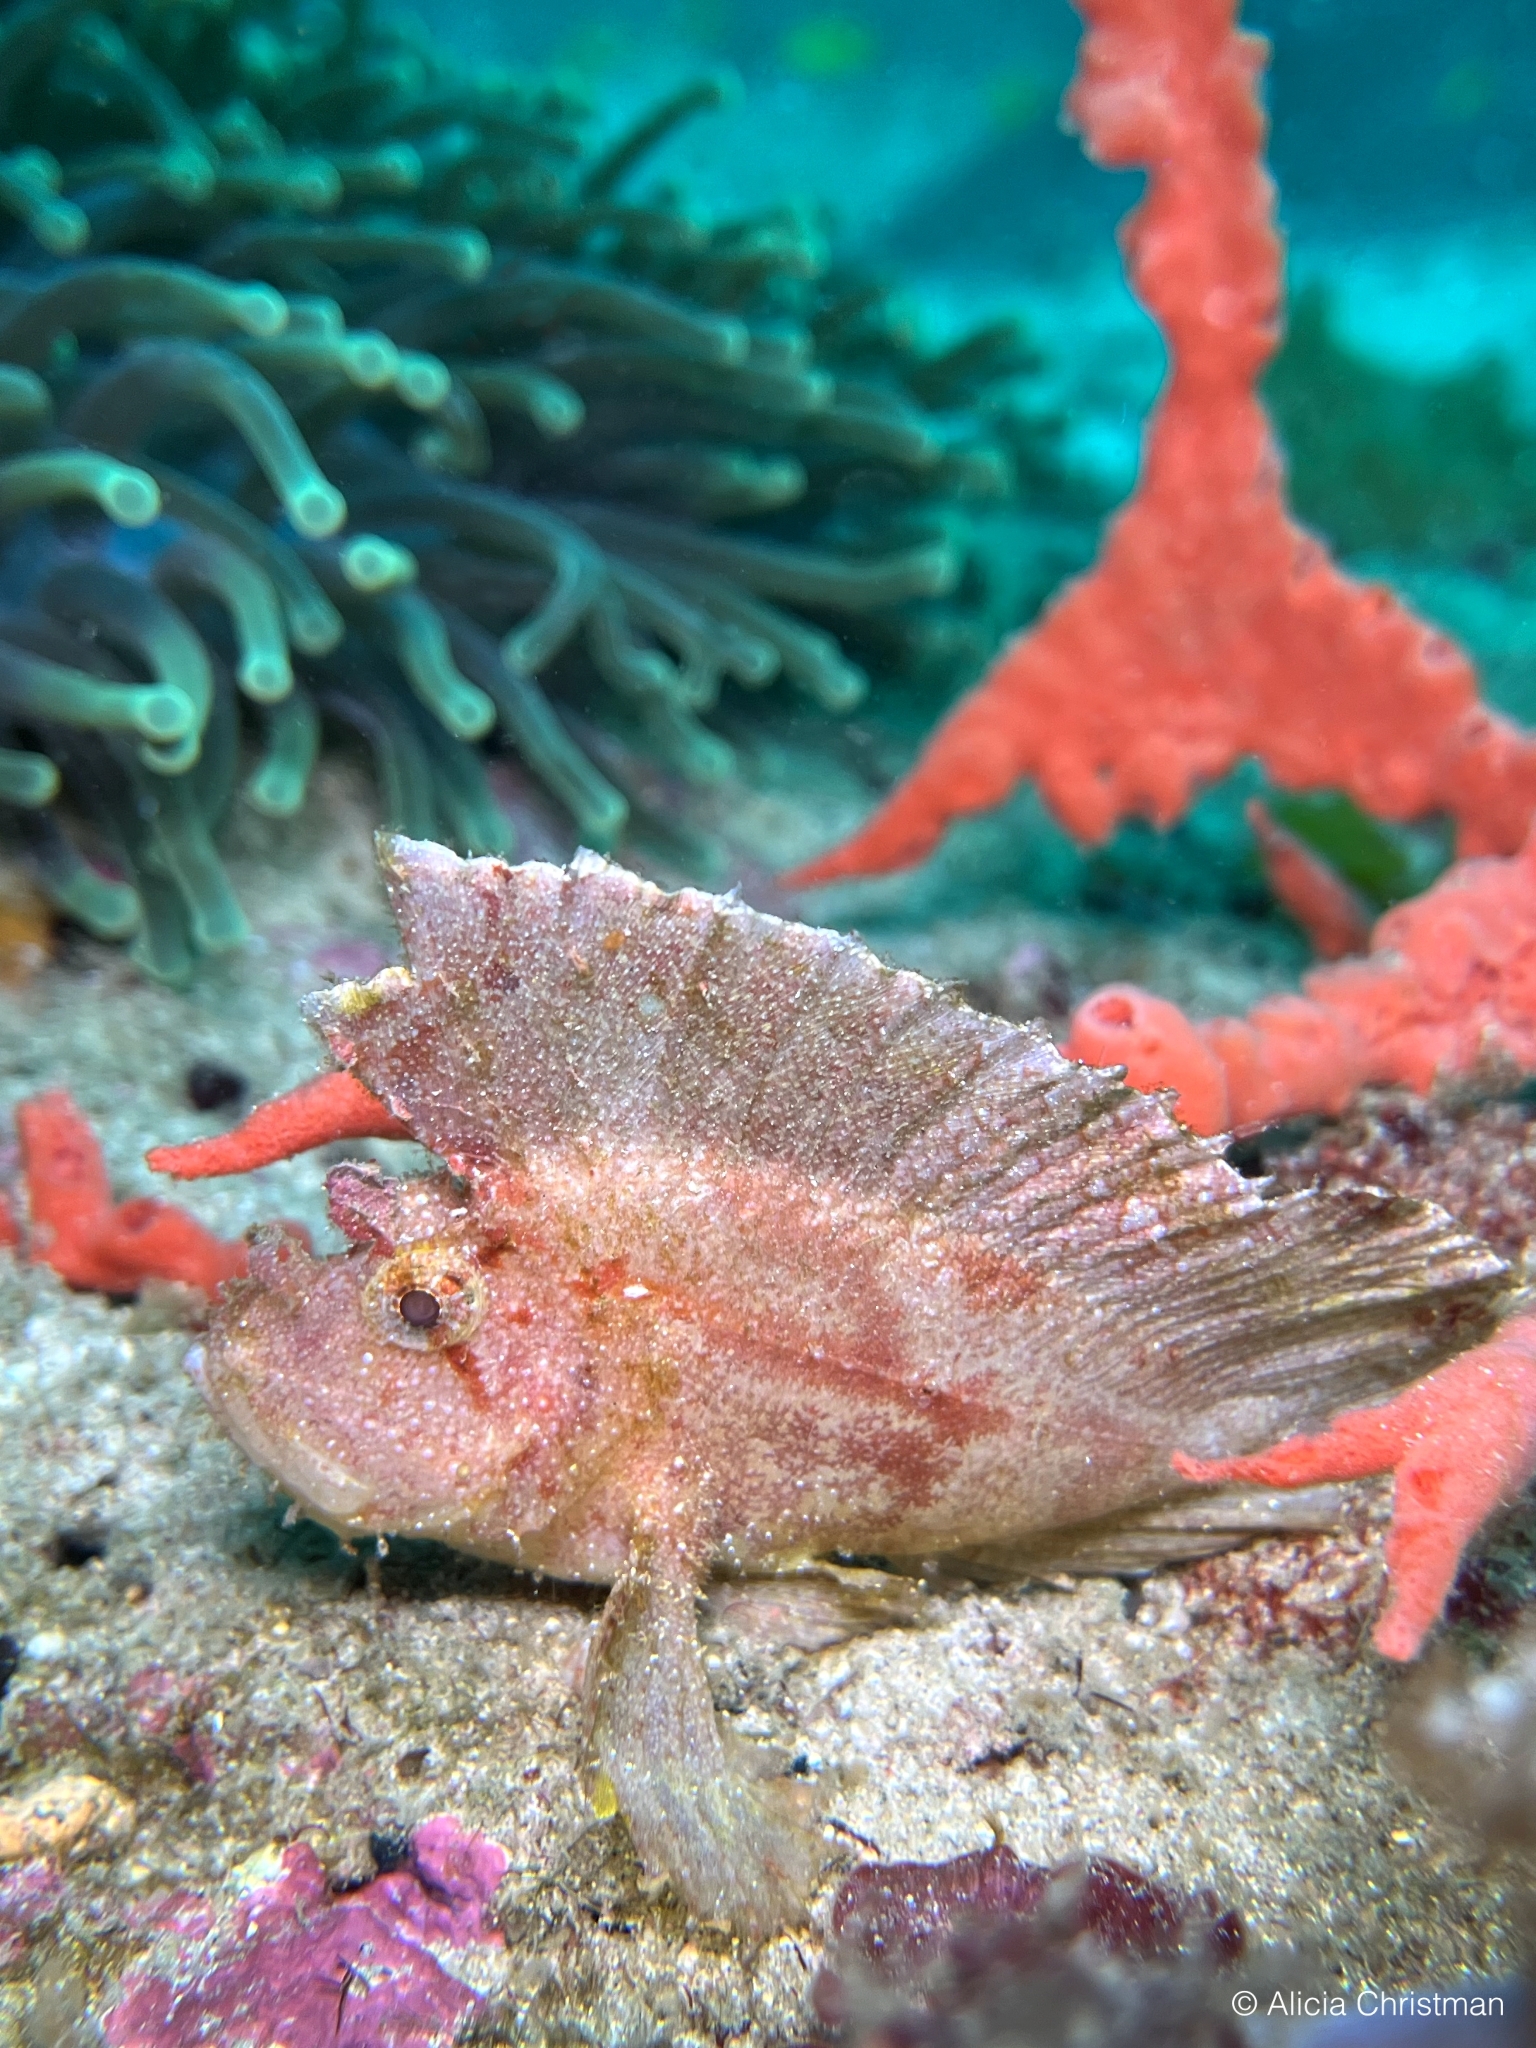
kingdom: Animalia
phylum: Chordata
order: Scorpaeniformes
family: Scorpaenidae
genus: Taenianotus
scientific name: Taenianotus triacanthus
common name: Leaf scorpionfish
